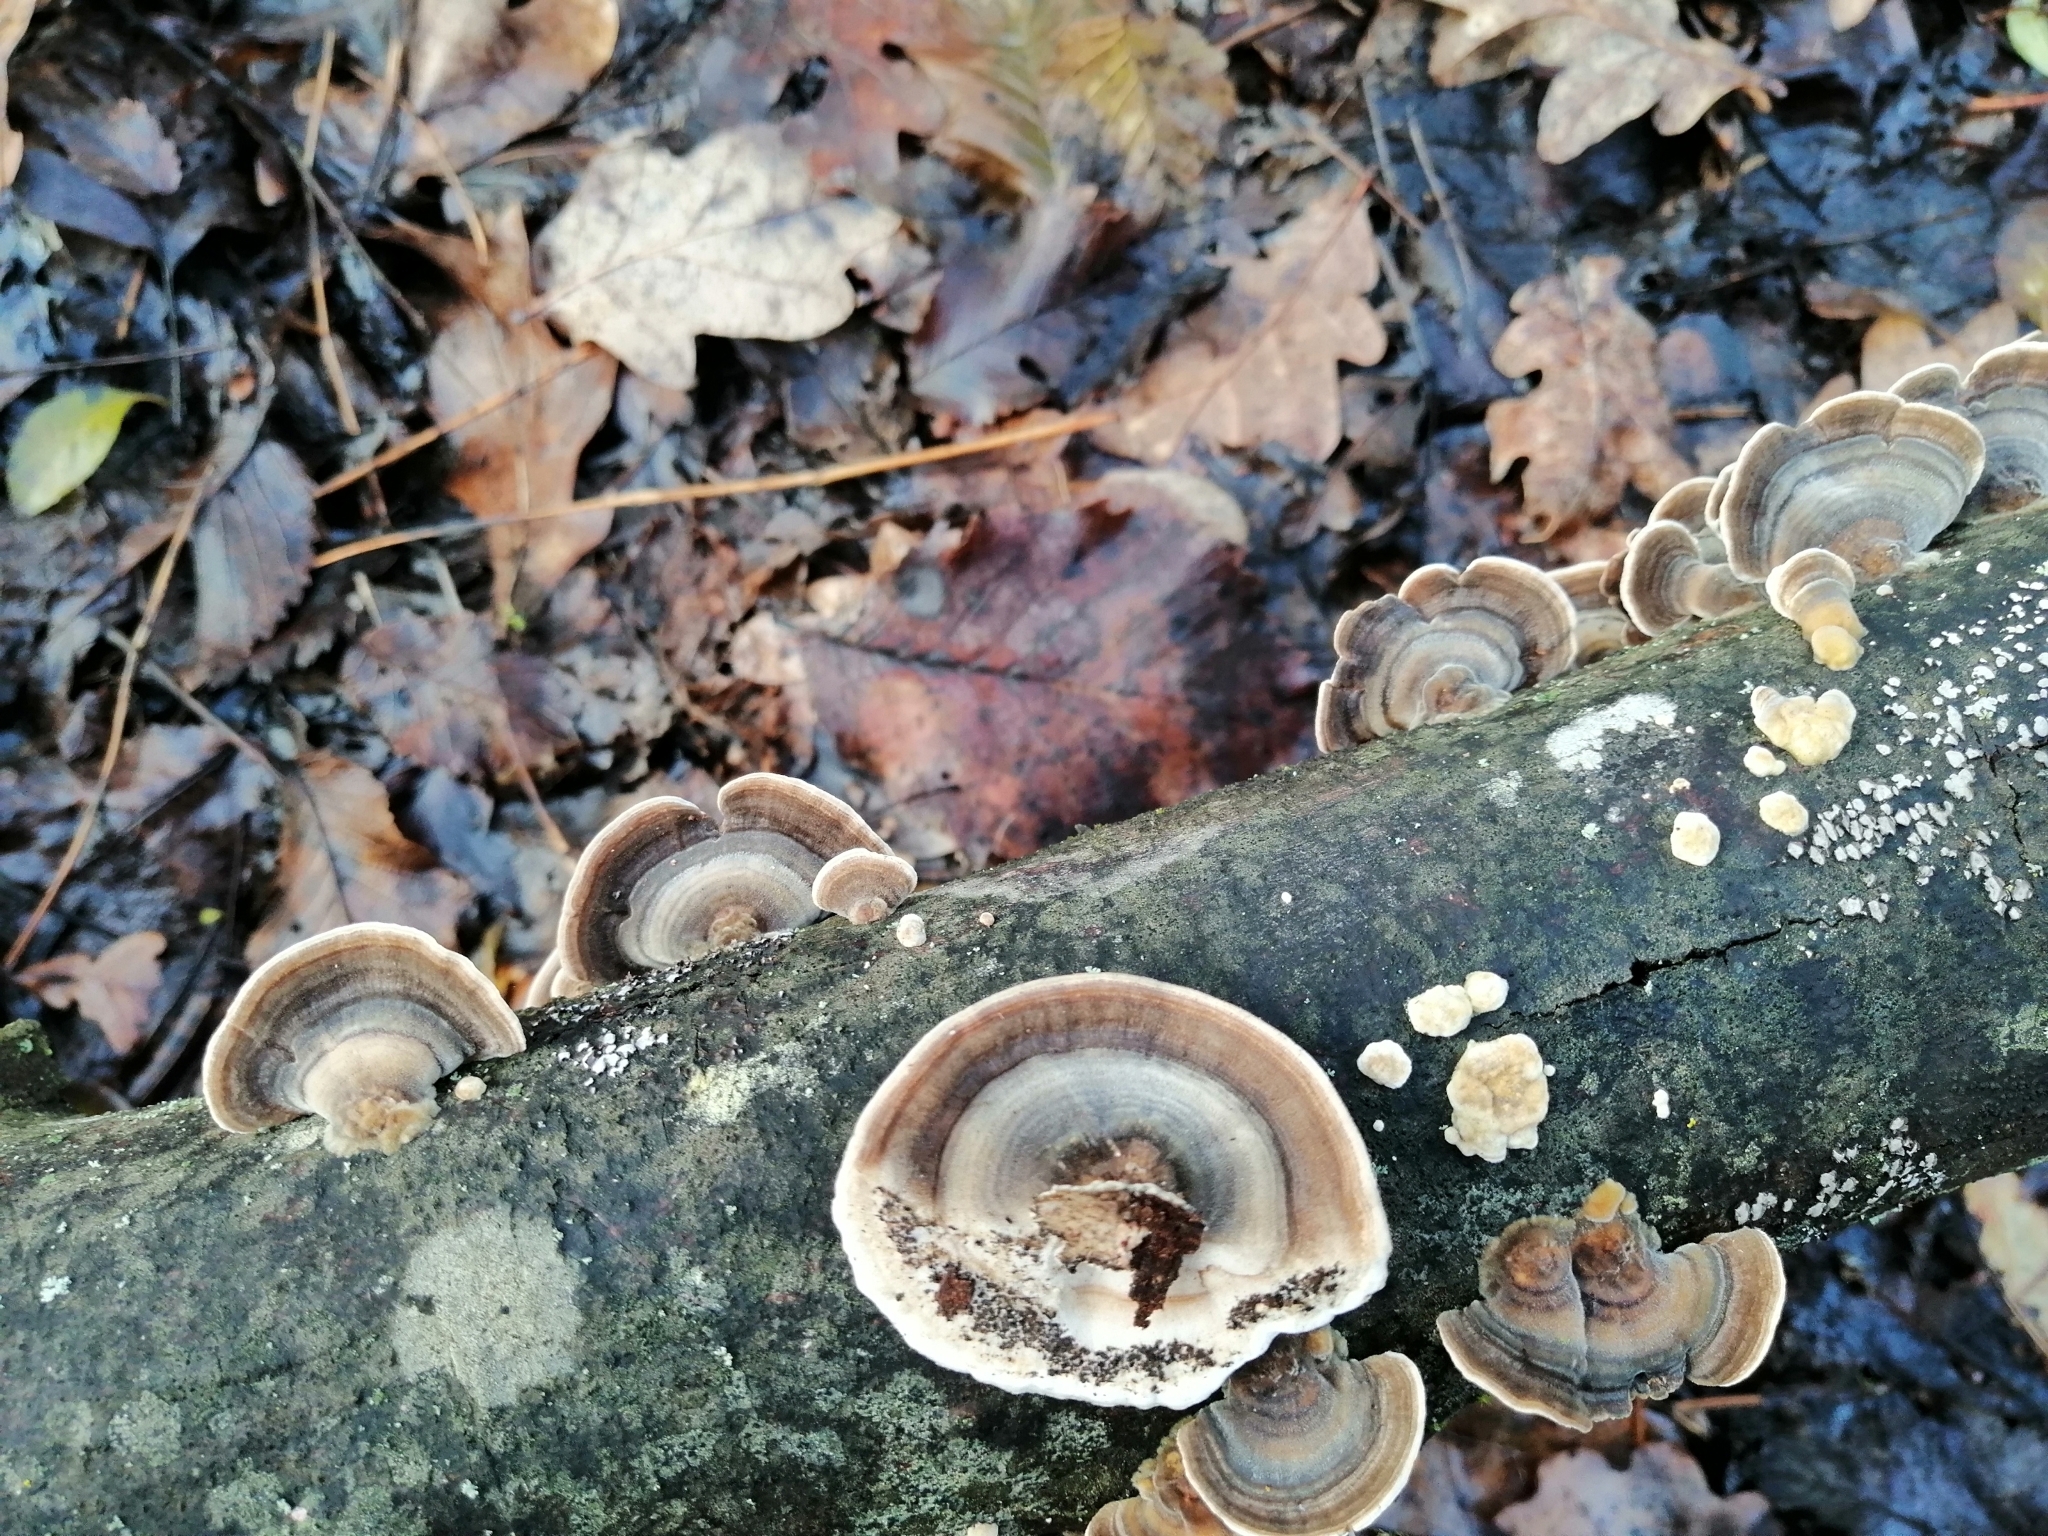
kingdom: Fungi
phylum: Basidiomycota
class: Agaricomycetes
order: Polyporales
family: Polyporaceae
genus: Trametes
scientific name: Trametes versicolor
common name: Turkeytail
